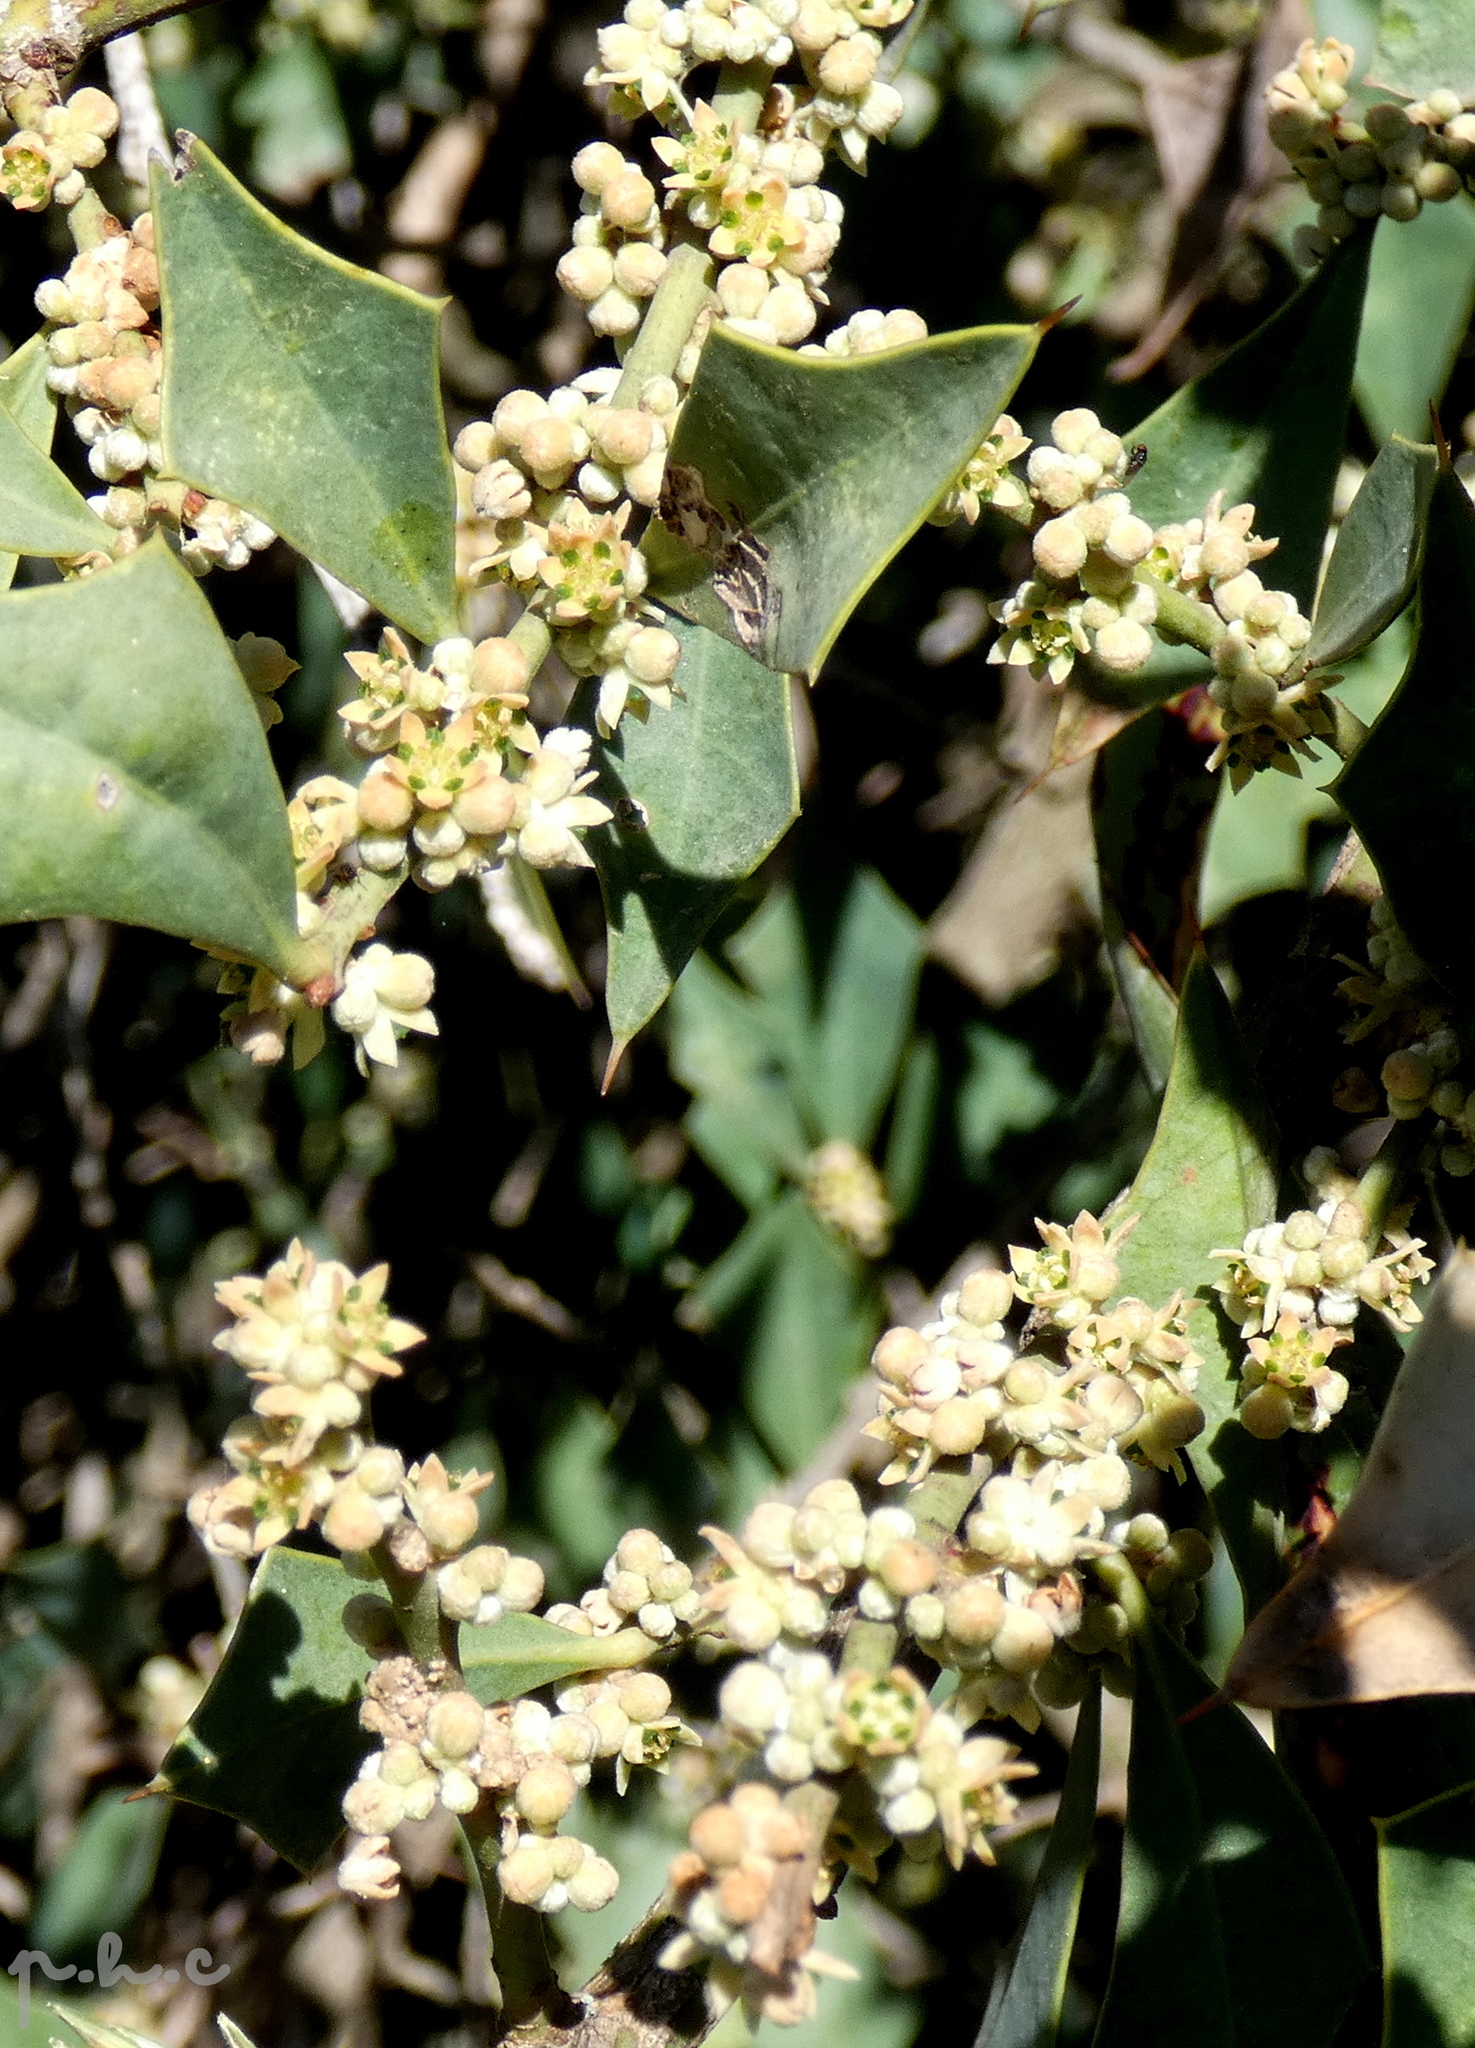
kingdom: Plantae
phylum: Tracheophyta
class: Magnoliopsida
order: Santalales
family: Cervantesiaceae
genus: Jodina
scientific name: Jodina rhombifolia
